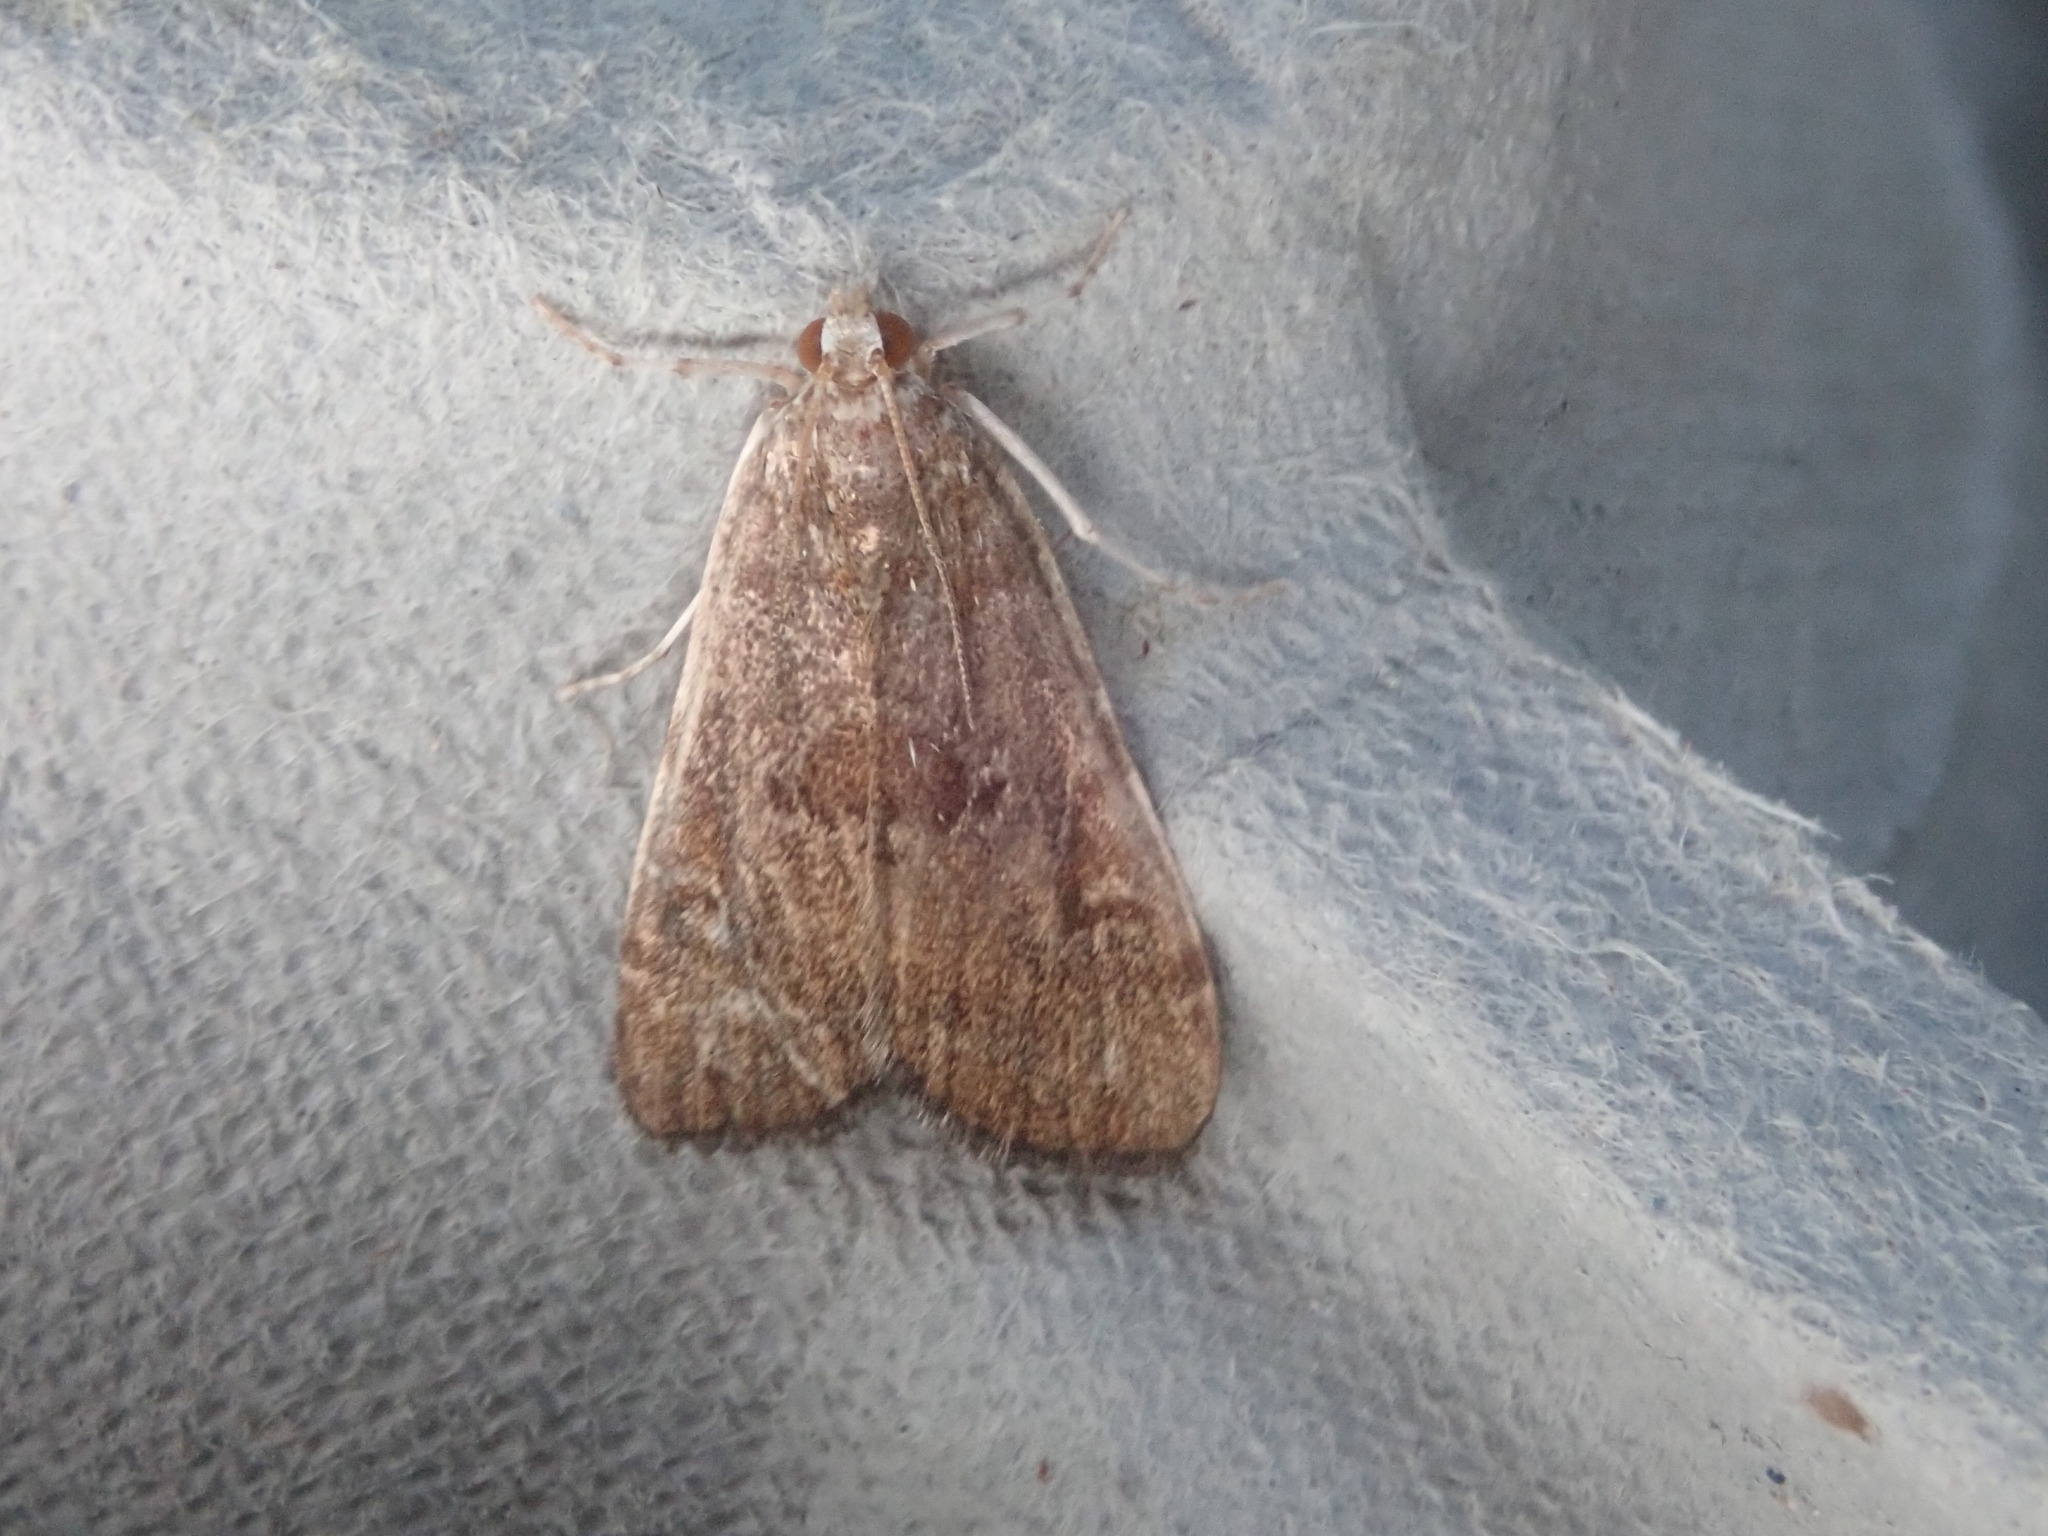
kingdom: Animalia
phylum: Arthropoda
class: Insecta
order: Lepidoptera
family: Crambidae
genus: Elophila
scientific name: Elophila gyralis
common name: Waterlily borer moth
